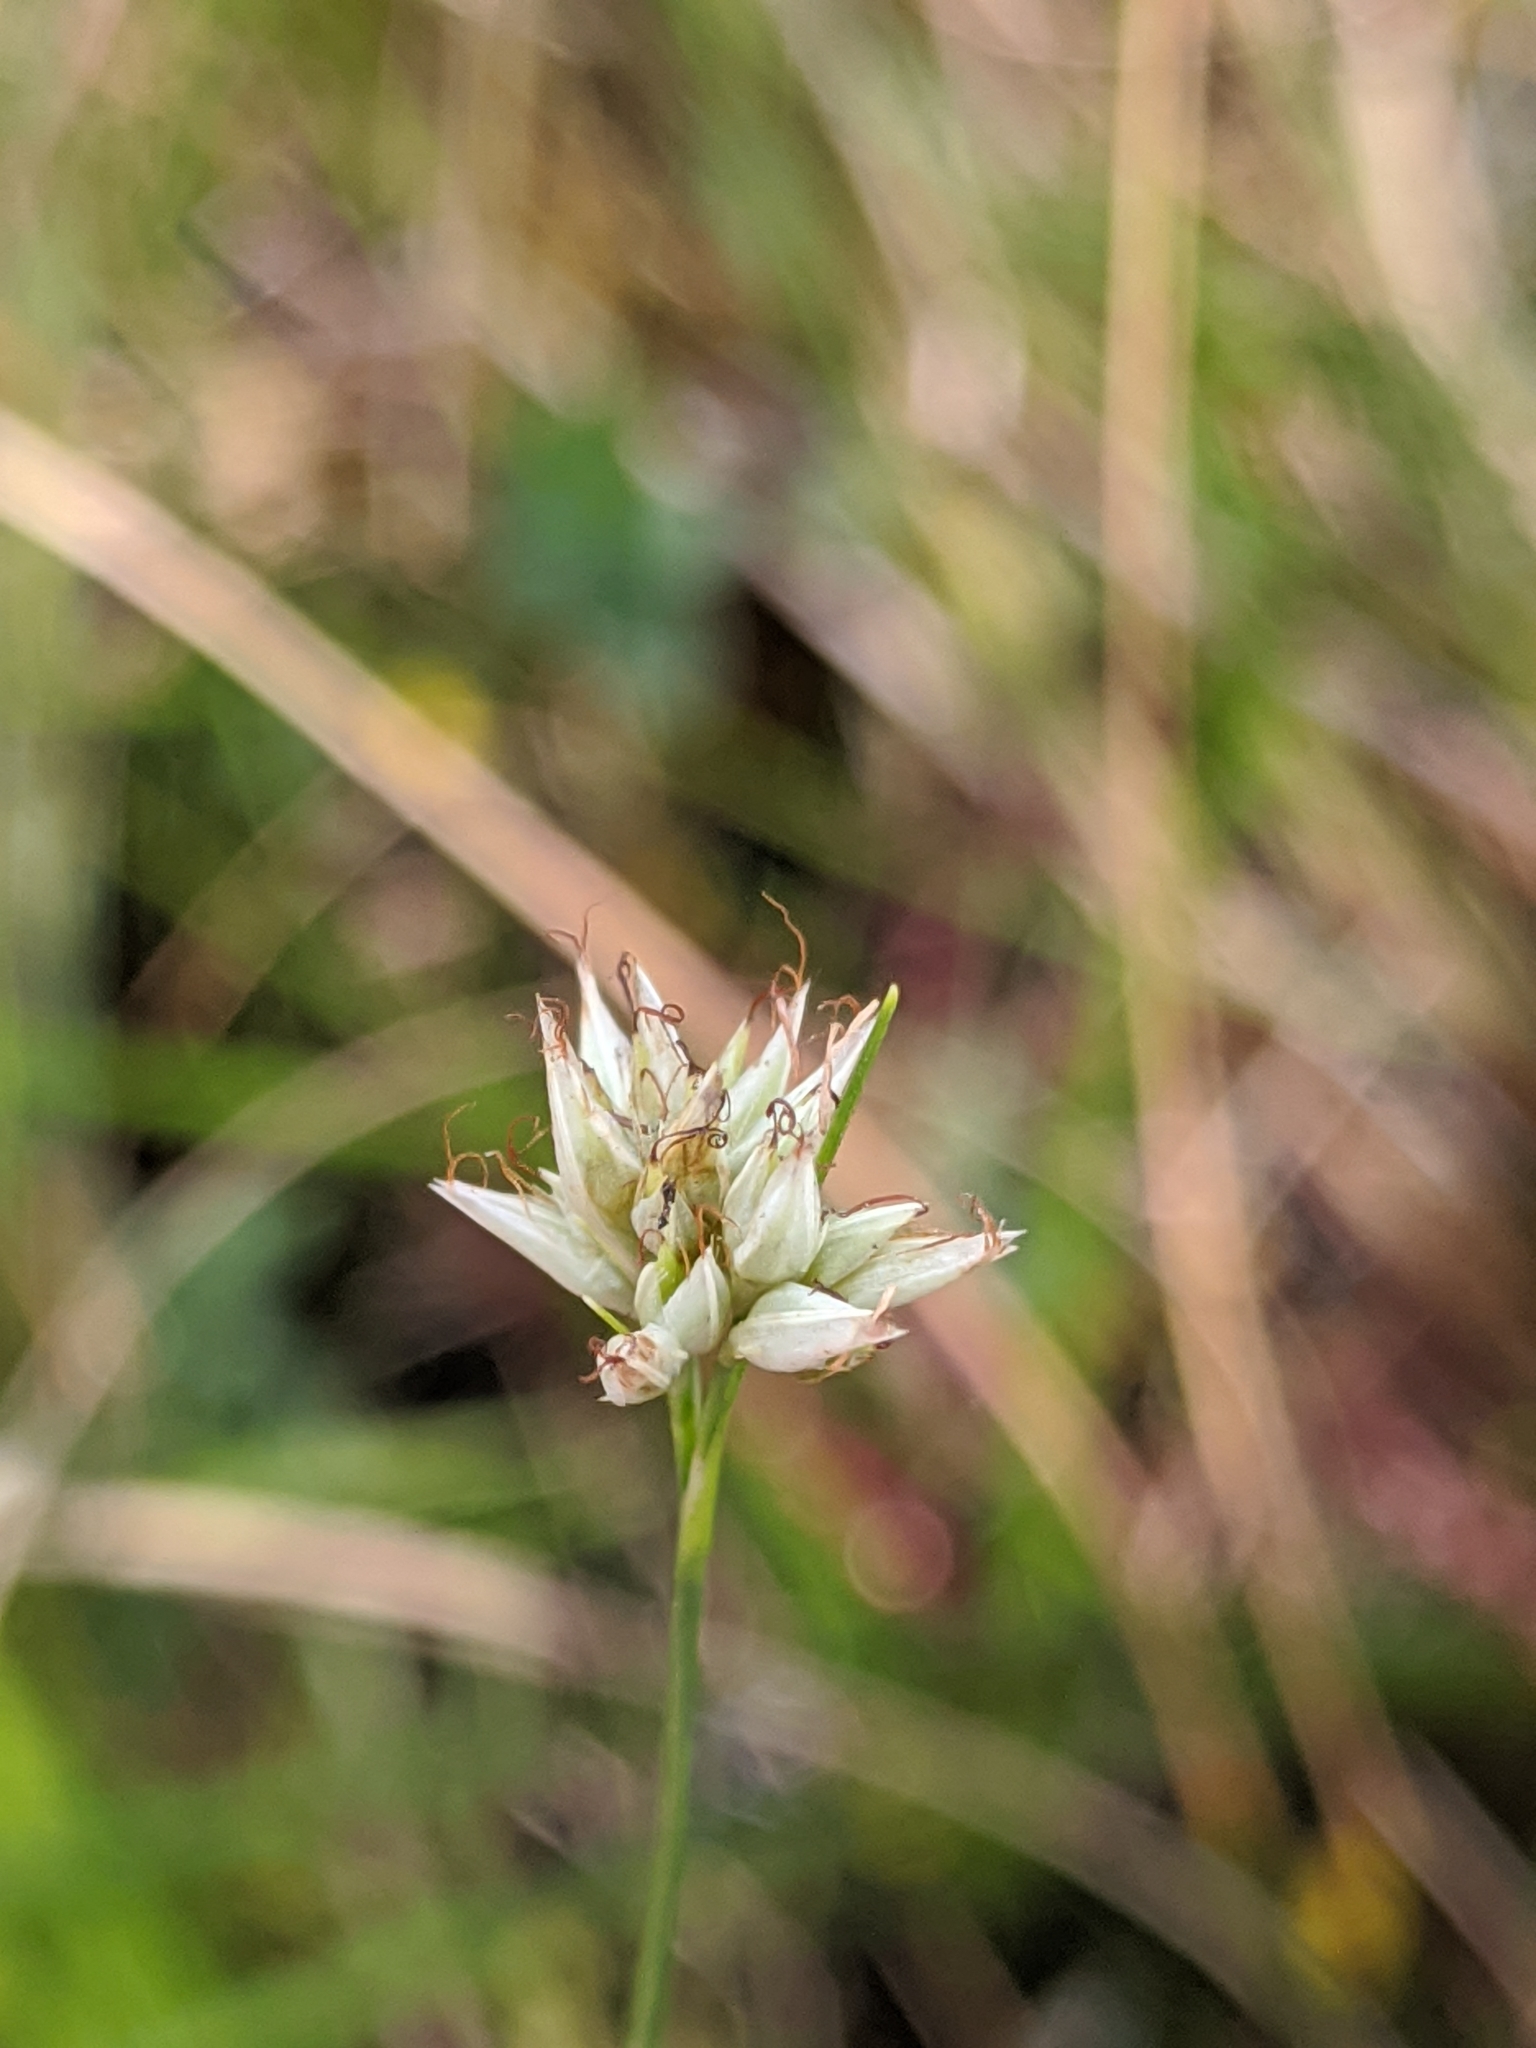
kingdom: Plantae
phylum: Tracheophyta
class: Liliopsida
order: Poales
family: Cyperaceae
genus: Rhynchospora
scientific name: Rhynchospora alba
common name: White beak-sedge
